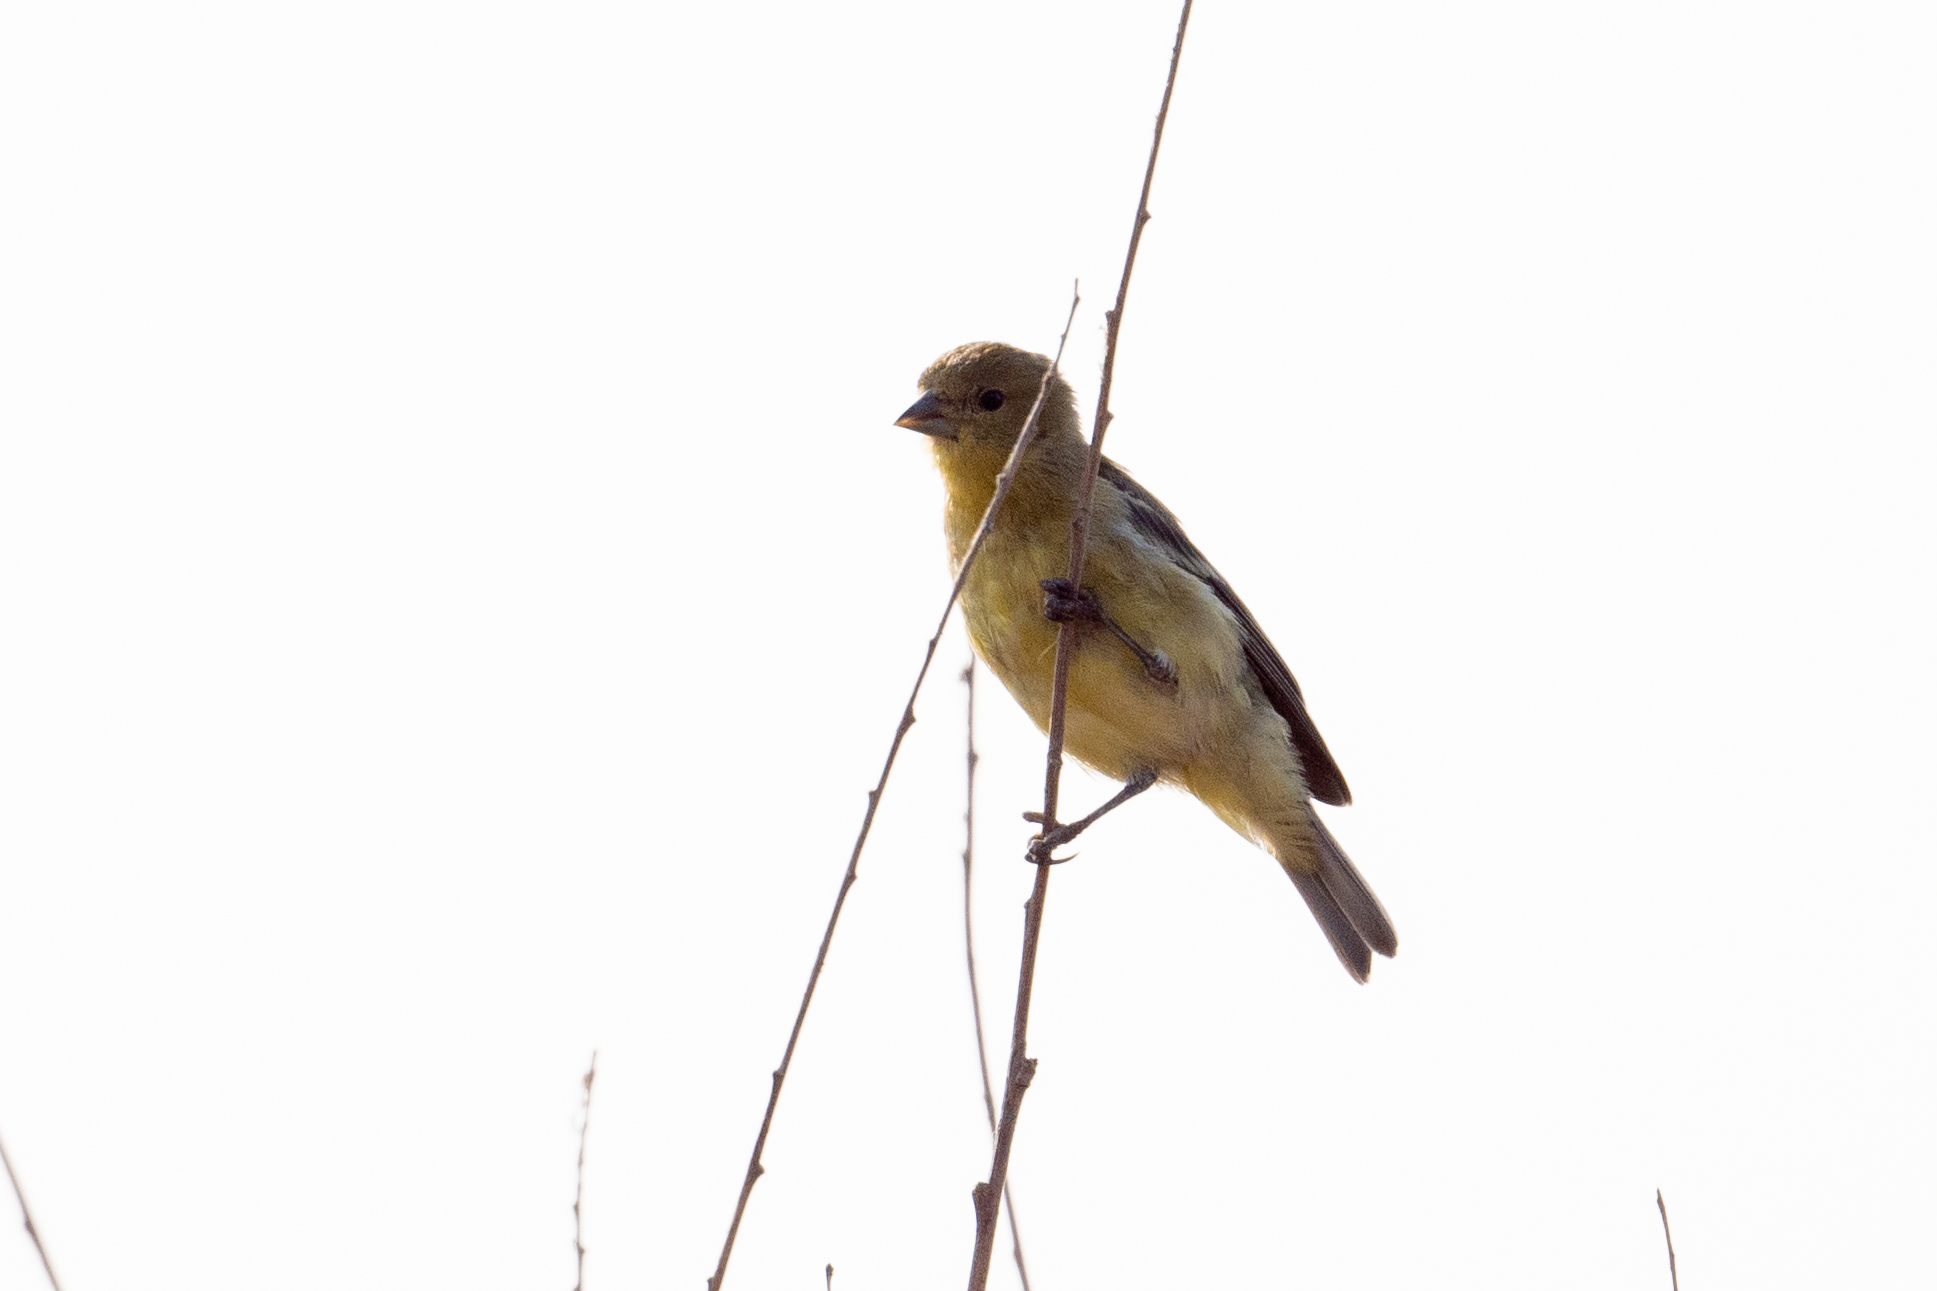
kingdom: Animalia
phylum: Chordata
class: Aves
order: Passeriformes
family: Fringillidae
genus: Spinus
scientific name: Spinus psaltria
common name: Lesser goldfinch
